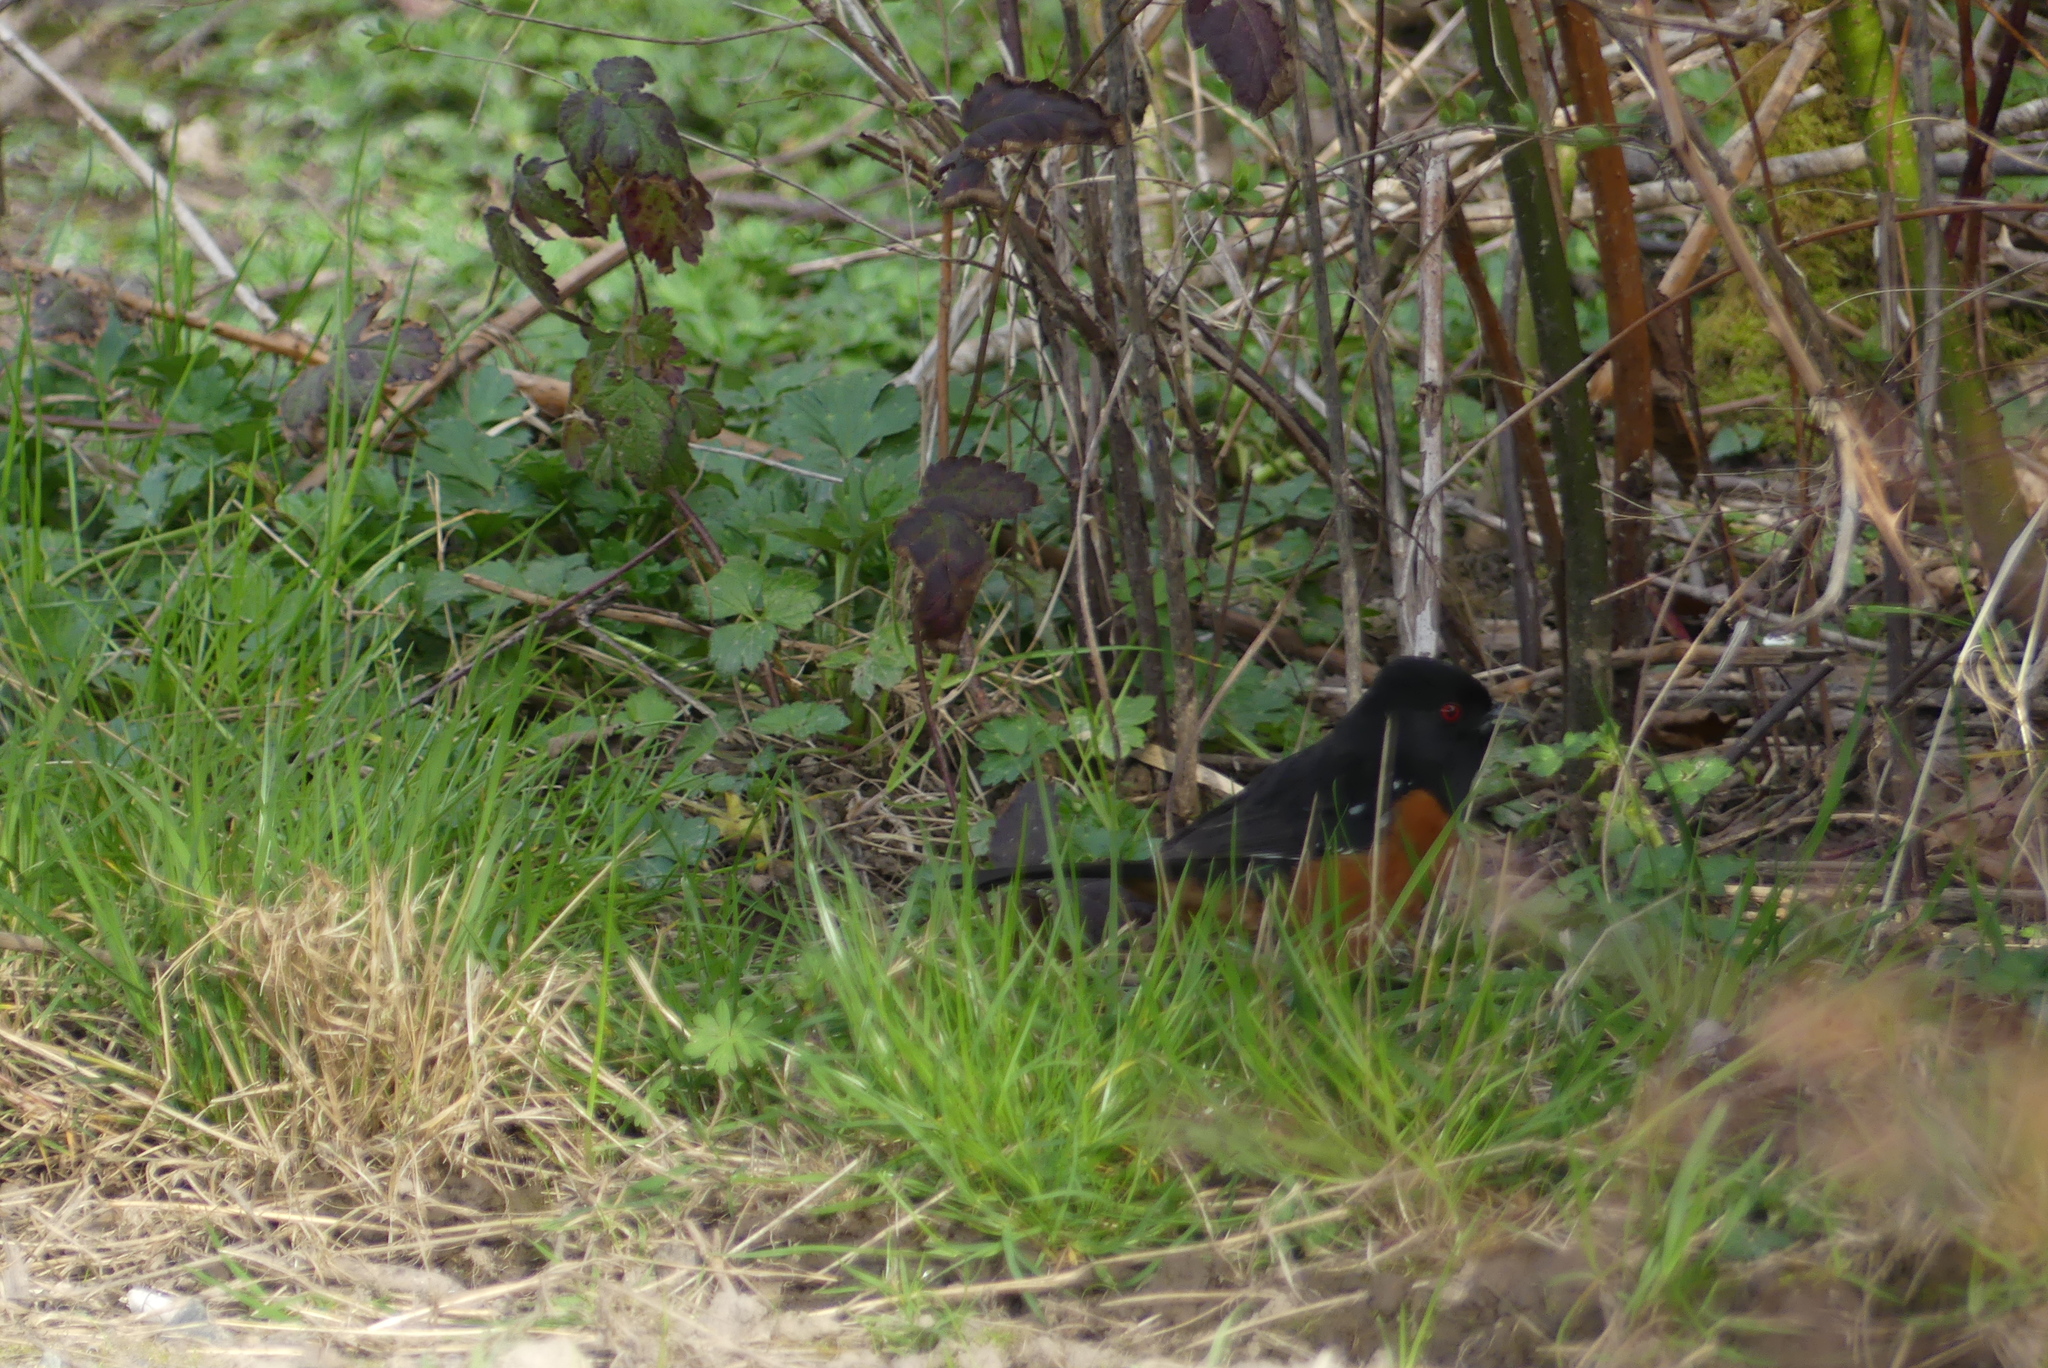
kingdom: Animalia
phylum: Chordata
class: Aves
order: Passeriformes
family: Passerellidae
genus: Pipilo
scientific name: Pipilo maculatus
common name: Spotted towhee
